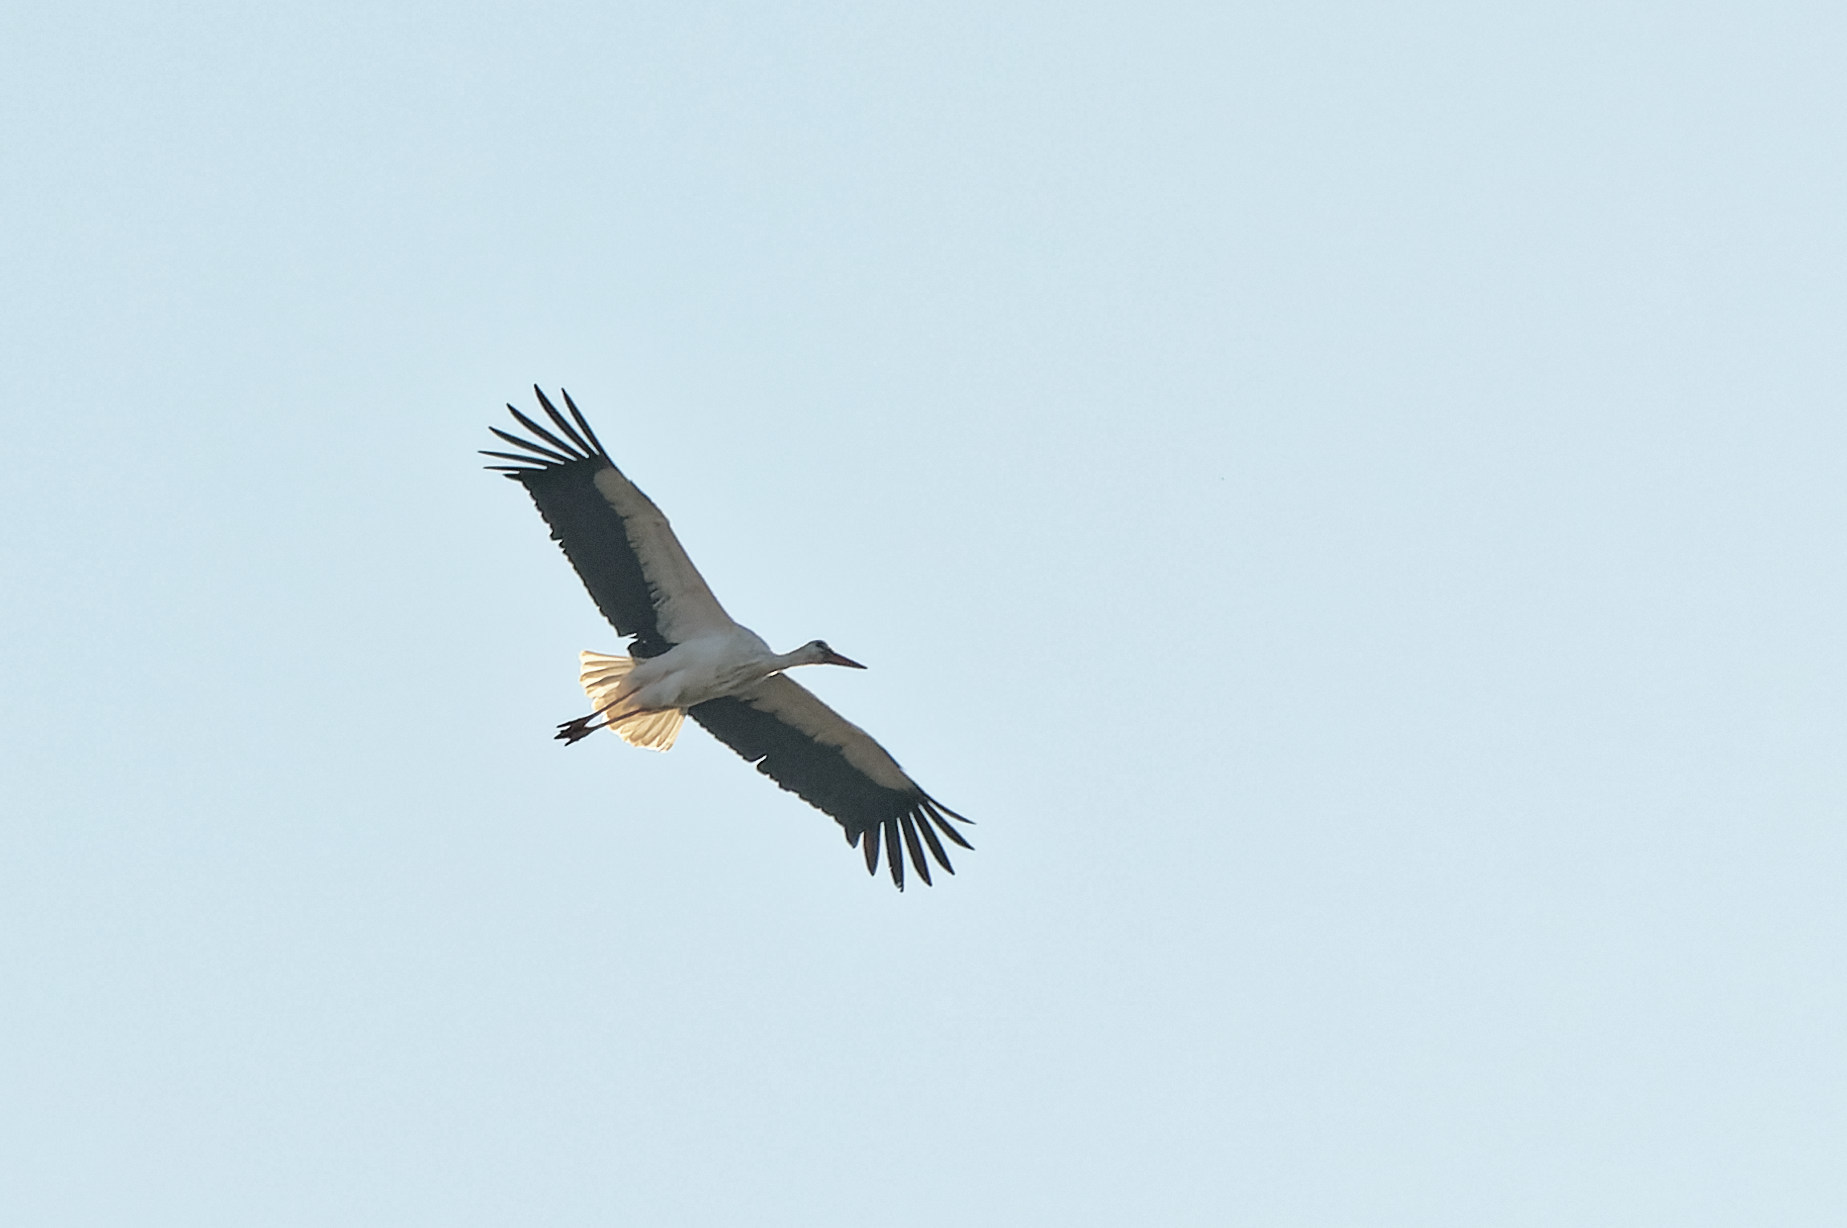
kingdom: Animalia
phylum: Chordata
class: Aves
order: Ciconiiformes
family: Ciconiidae
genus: Ciconia
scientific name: Ciconia ciconia
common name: White stork
